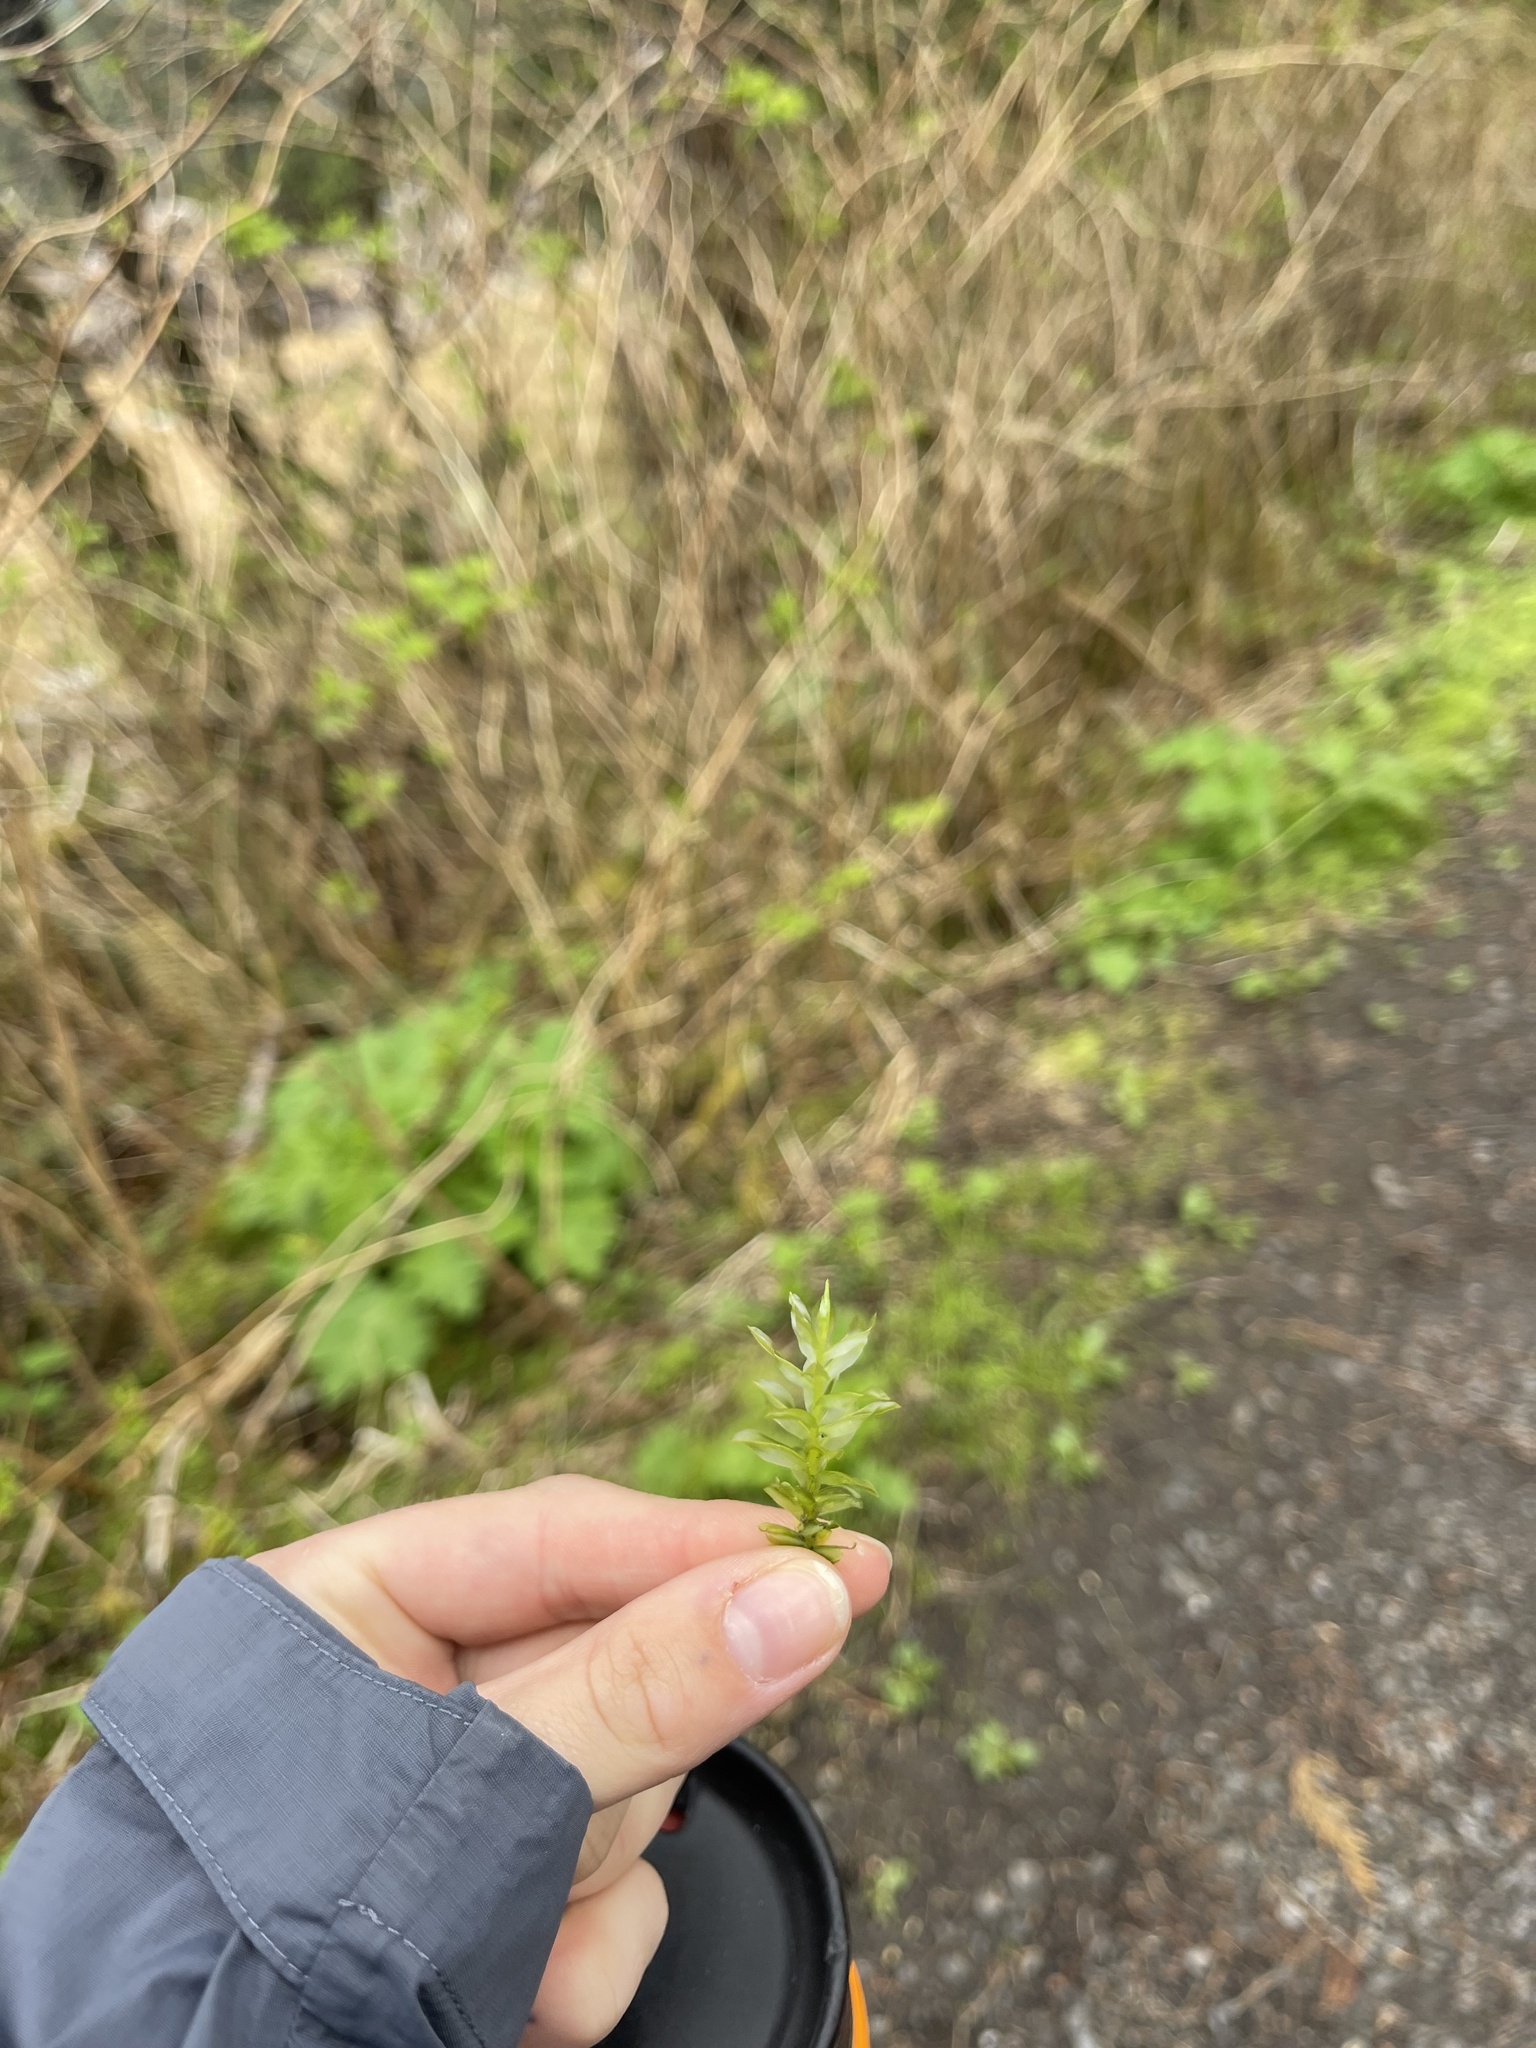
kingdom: Plantae
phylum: Bryophyta
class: Bryopsida
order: Bryales
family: Mniaceae
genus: Plagiomnium
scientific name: Plagiomnium insigne
